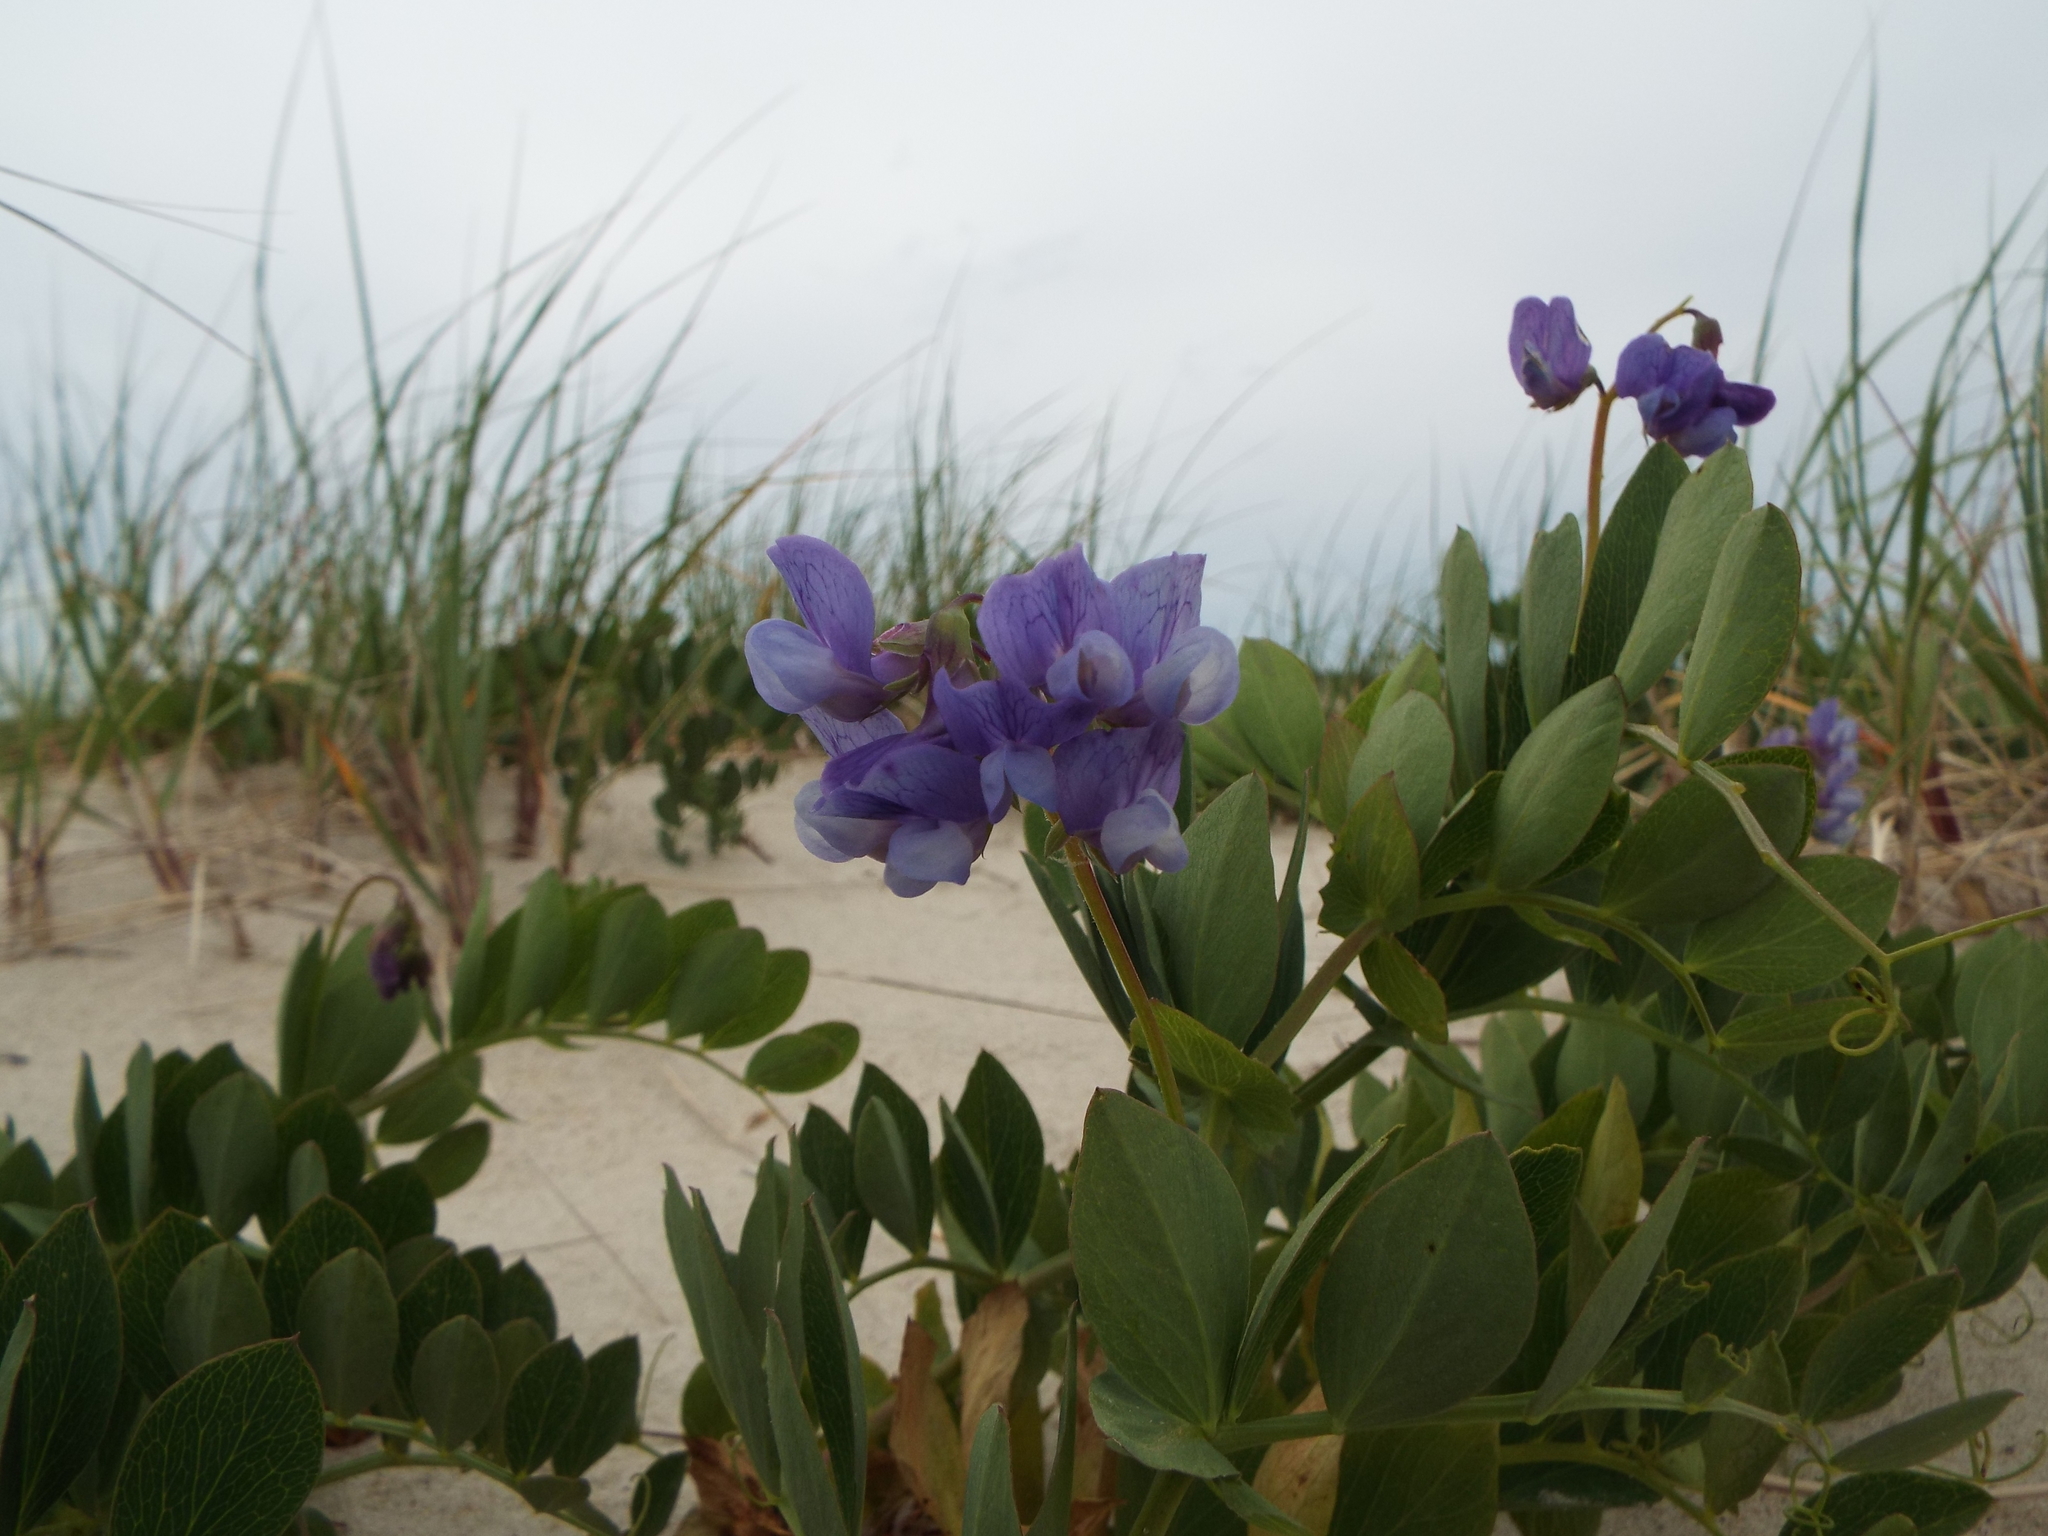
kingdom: Plantae
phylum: Tracheophyta
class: Magnoliopsida
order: Fabales
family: Fabaceae
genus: Lathyrus
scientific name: Lathyrus japonicus
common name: Sea pea
